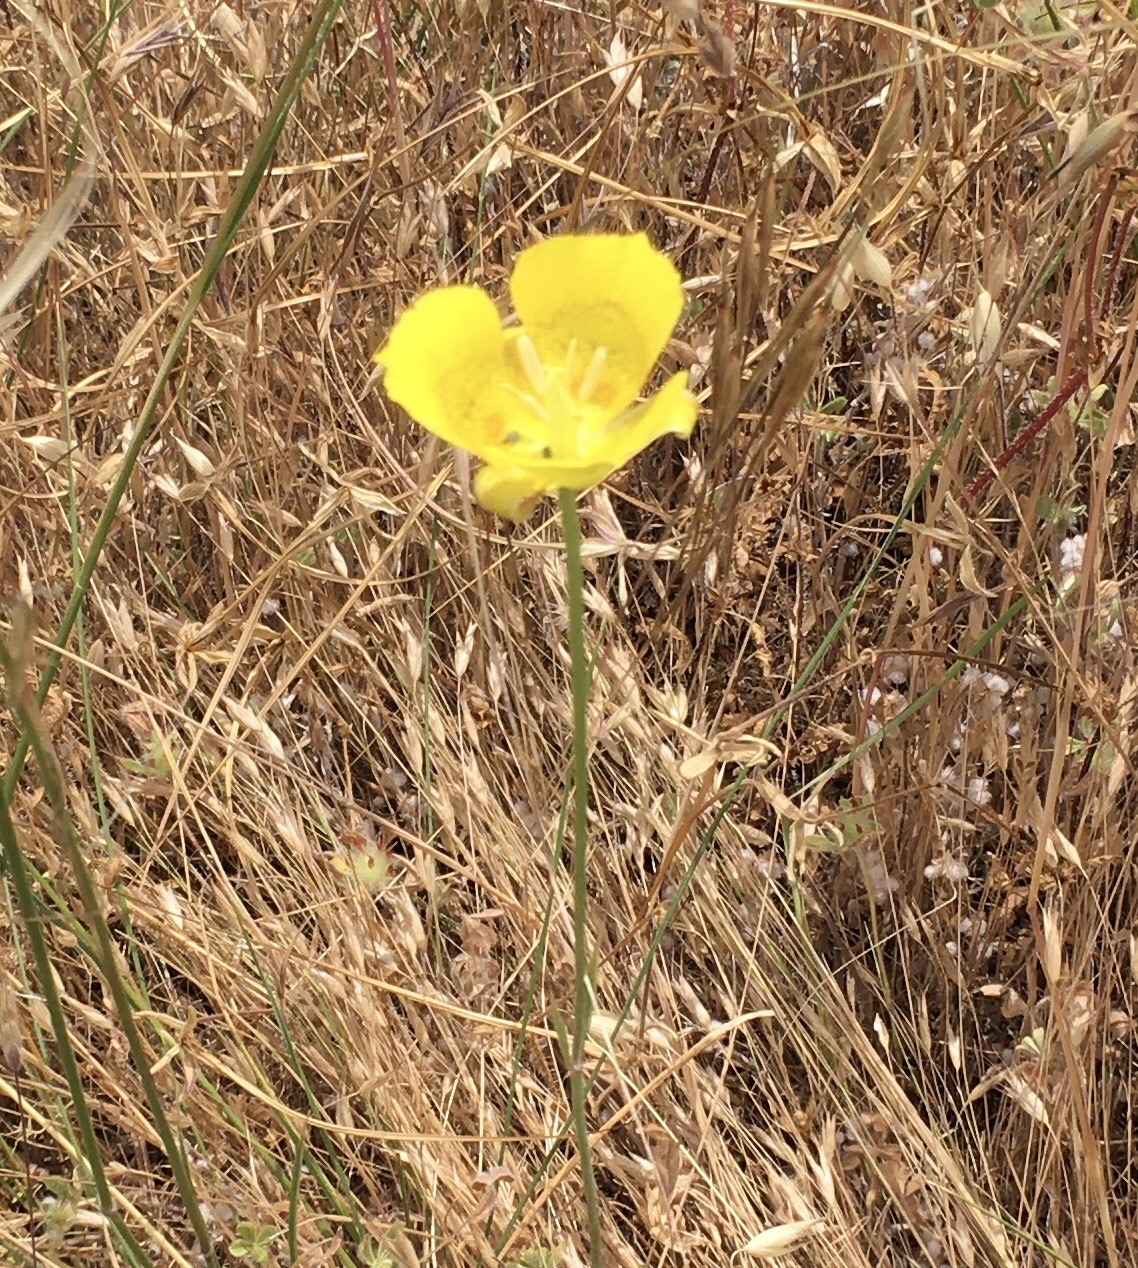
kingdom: Plantae
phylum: Tracheophyta
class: Liliopsida
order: Liliales
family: Liliaceae
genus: Calochortus
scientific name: Calochortus luteus
